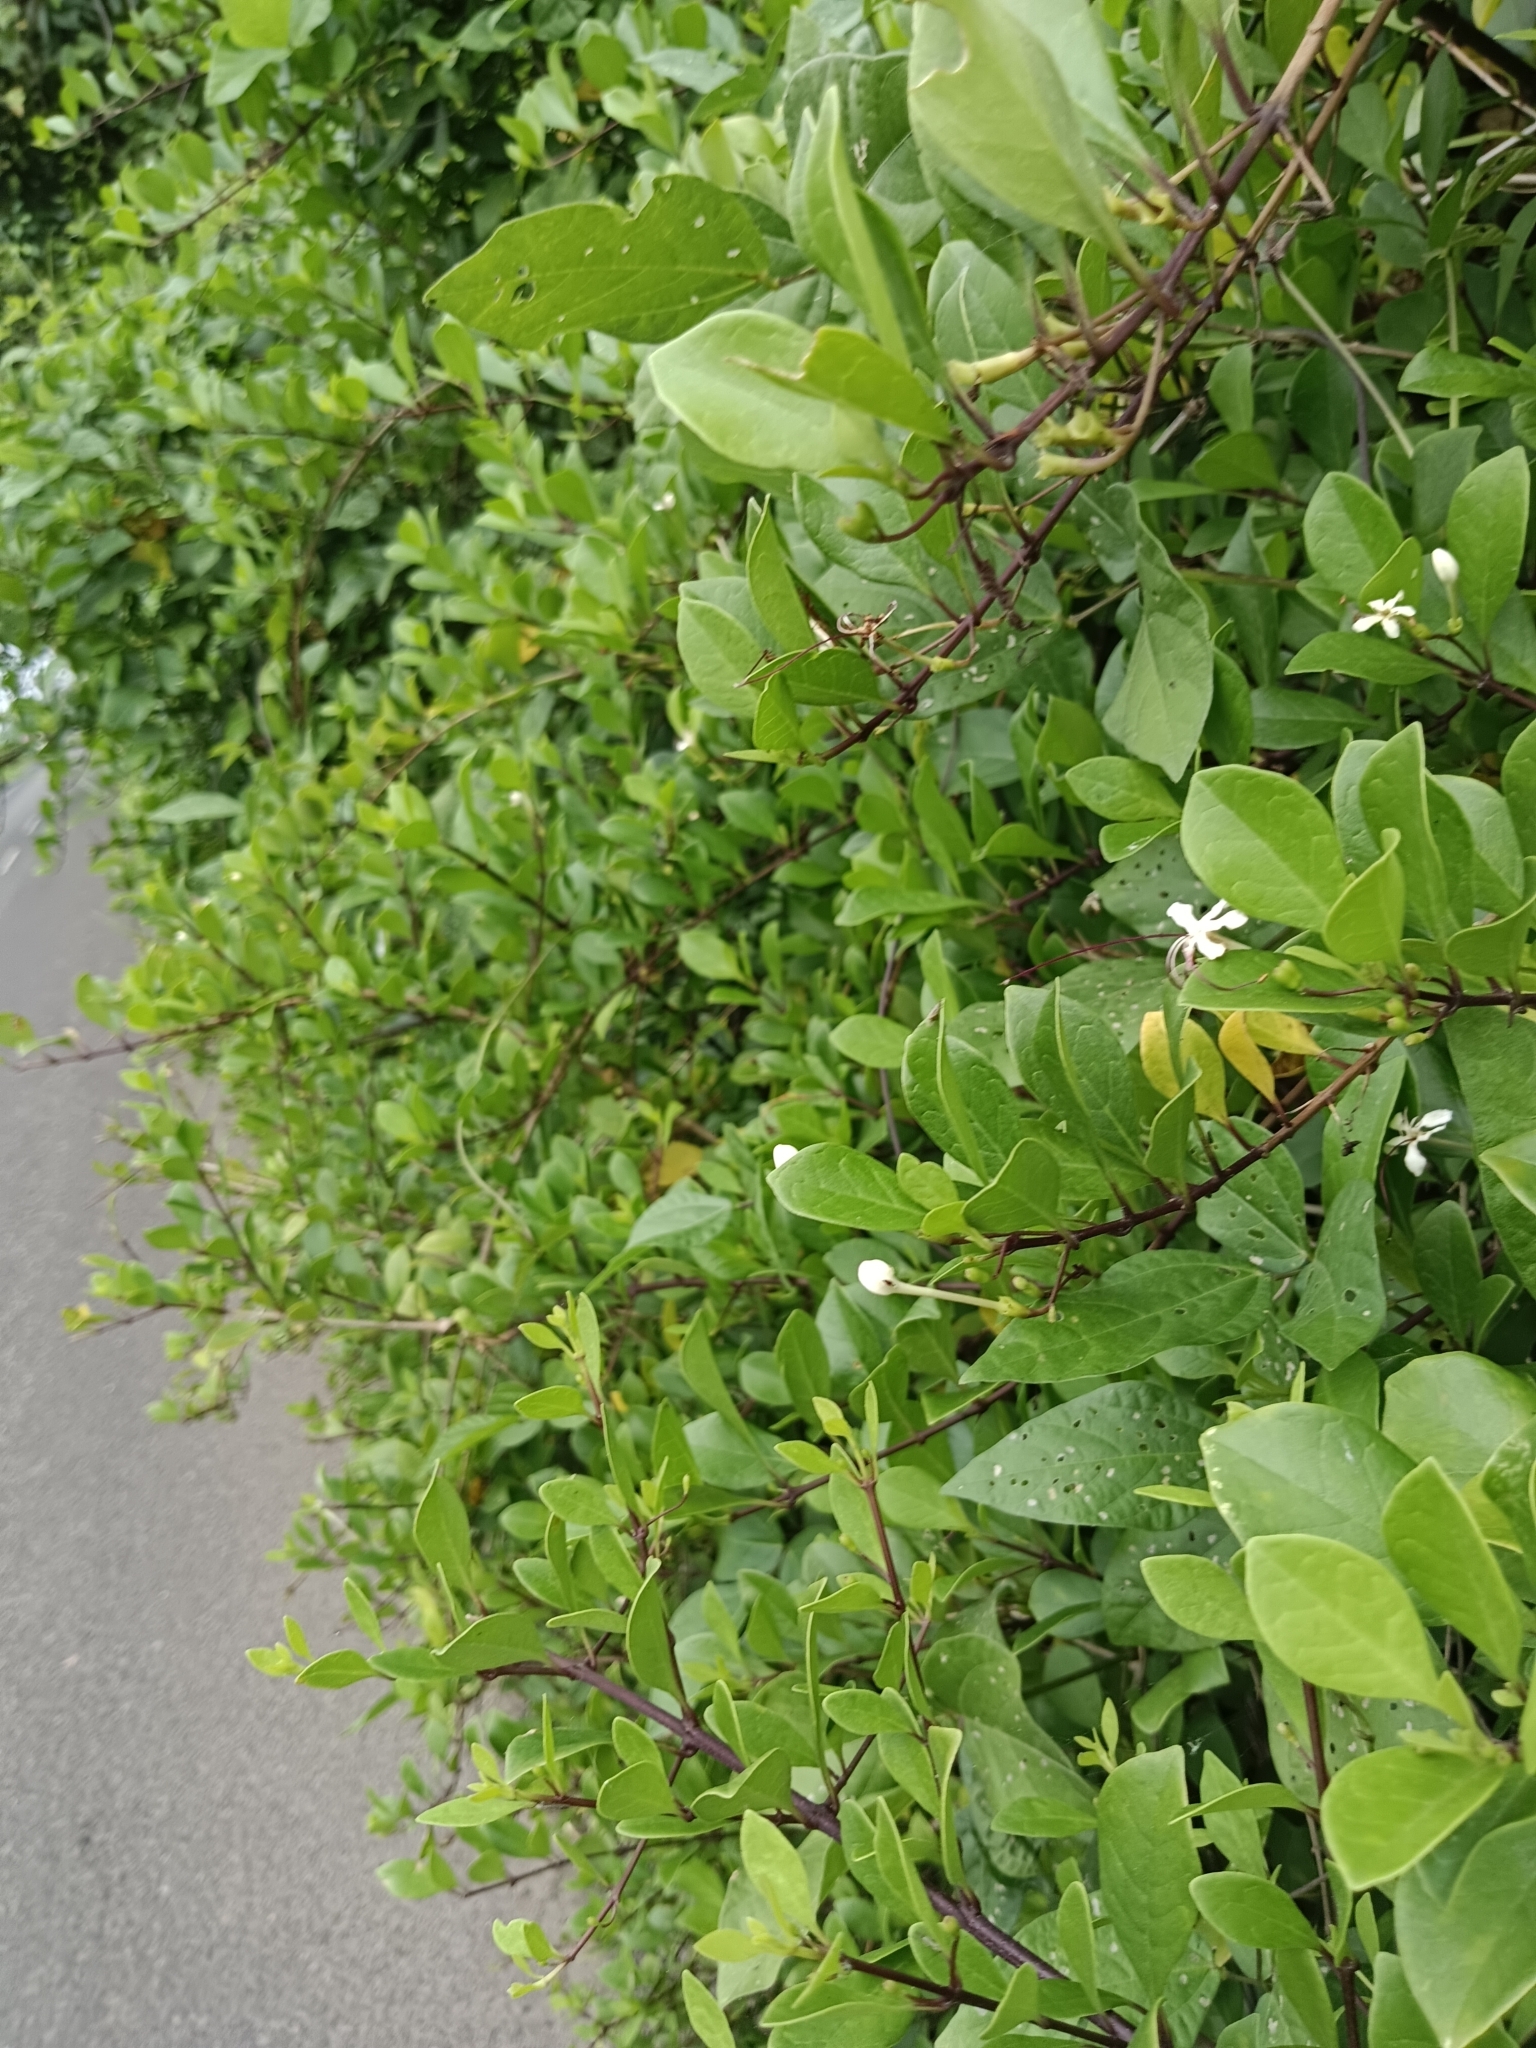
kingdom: Plantae
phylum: Tracheophyta
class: Magnoliopsida
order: Lamiales
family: Lamiaceae
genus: Volkameria
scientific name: Volkameria inermis
